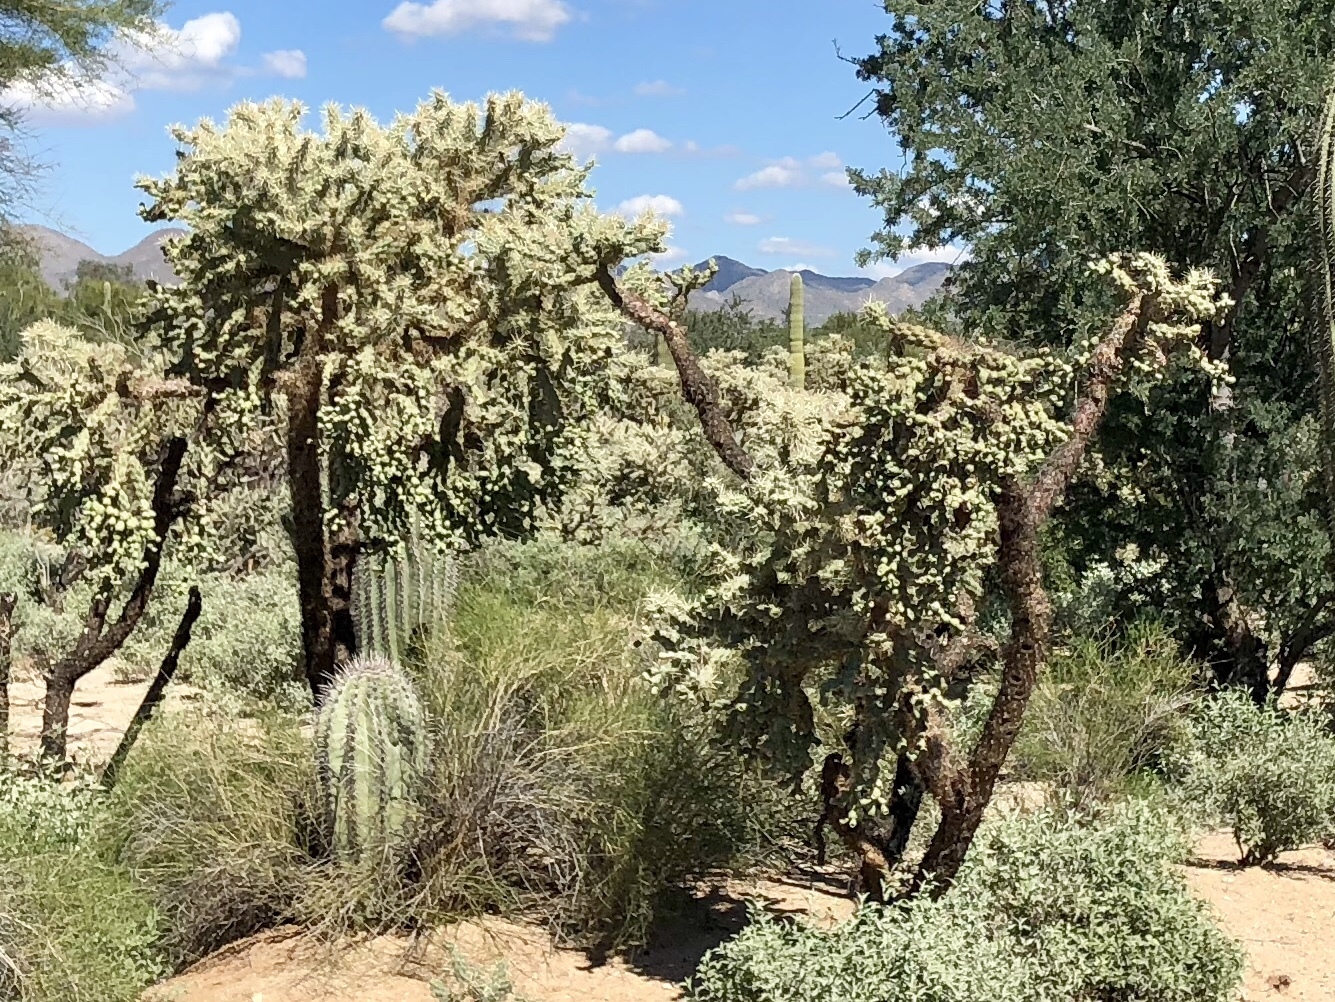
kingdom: Plantae
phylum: Tracheophyta
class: Magnoliopsida
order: Caryophyllales
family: Cactaceae
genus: Cylindropuntia
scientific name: Cylindropuntia fulgida
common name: Jumping cholla
